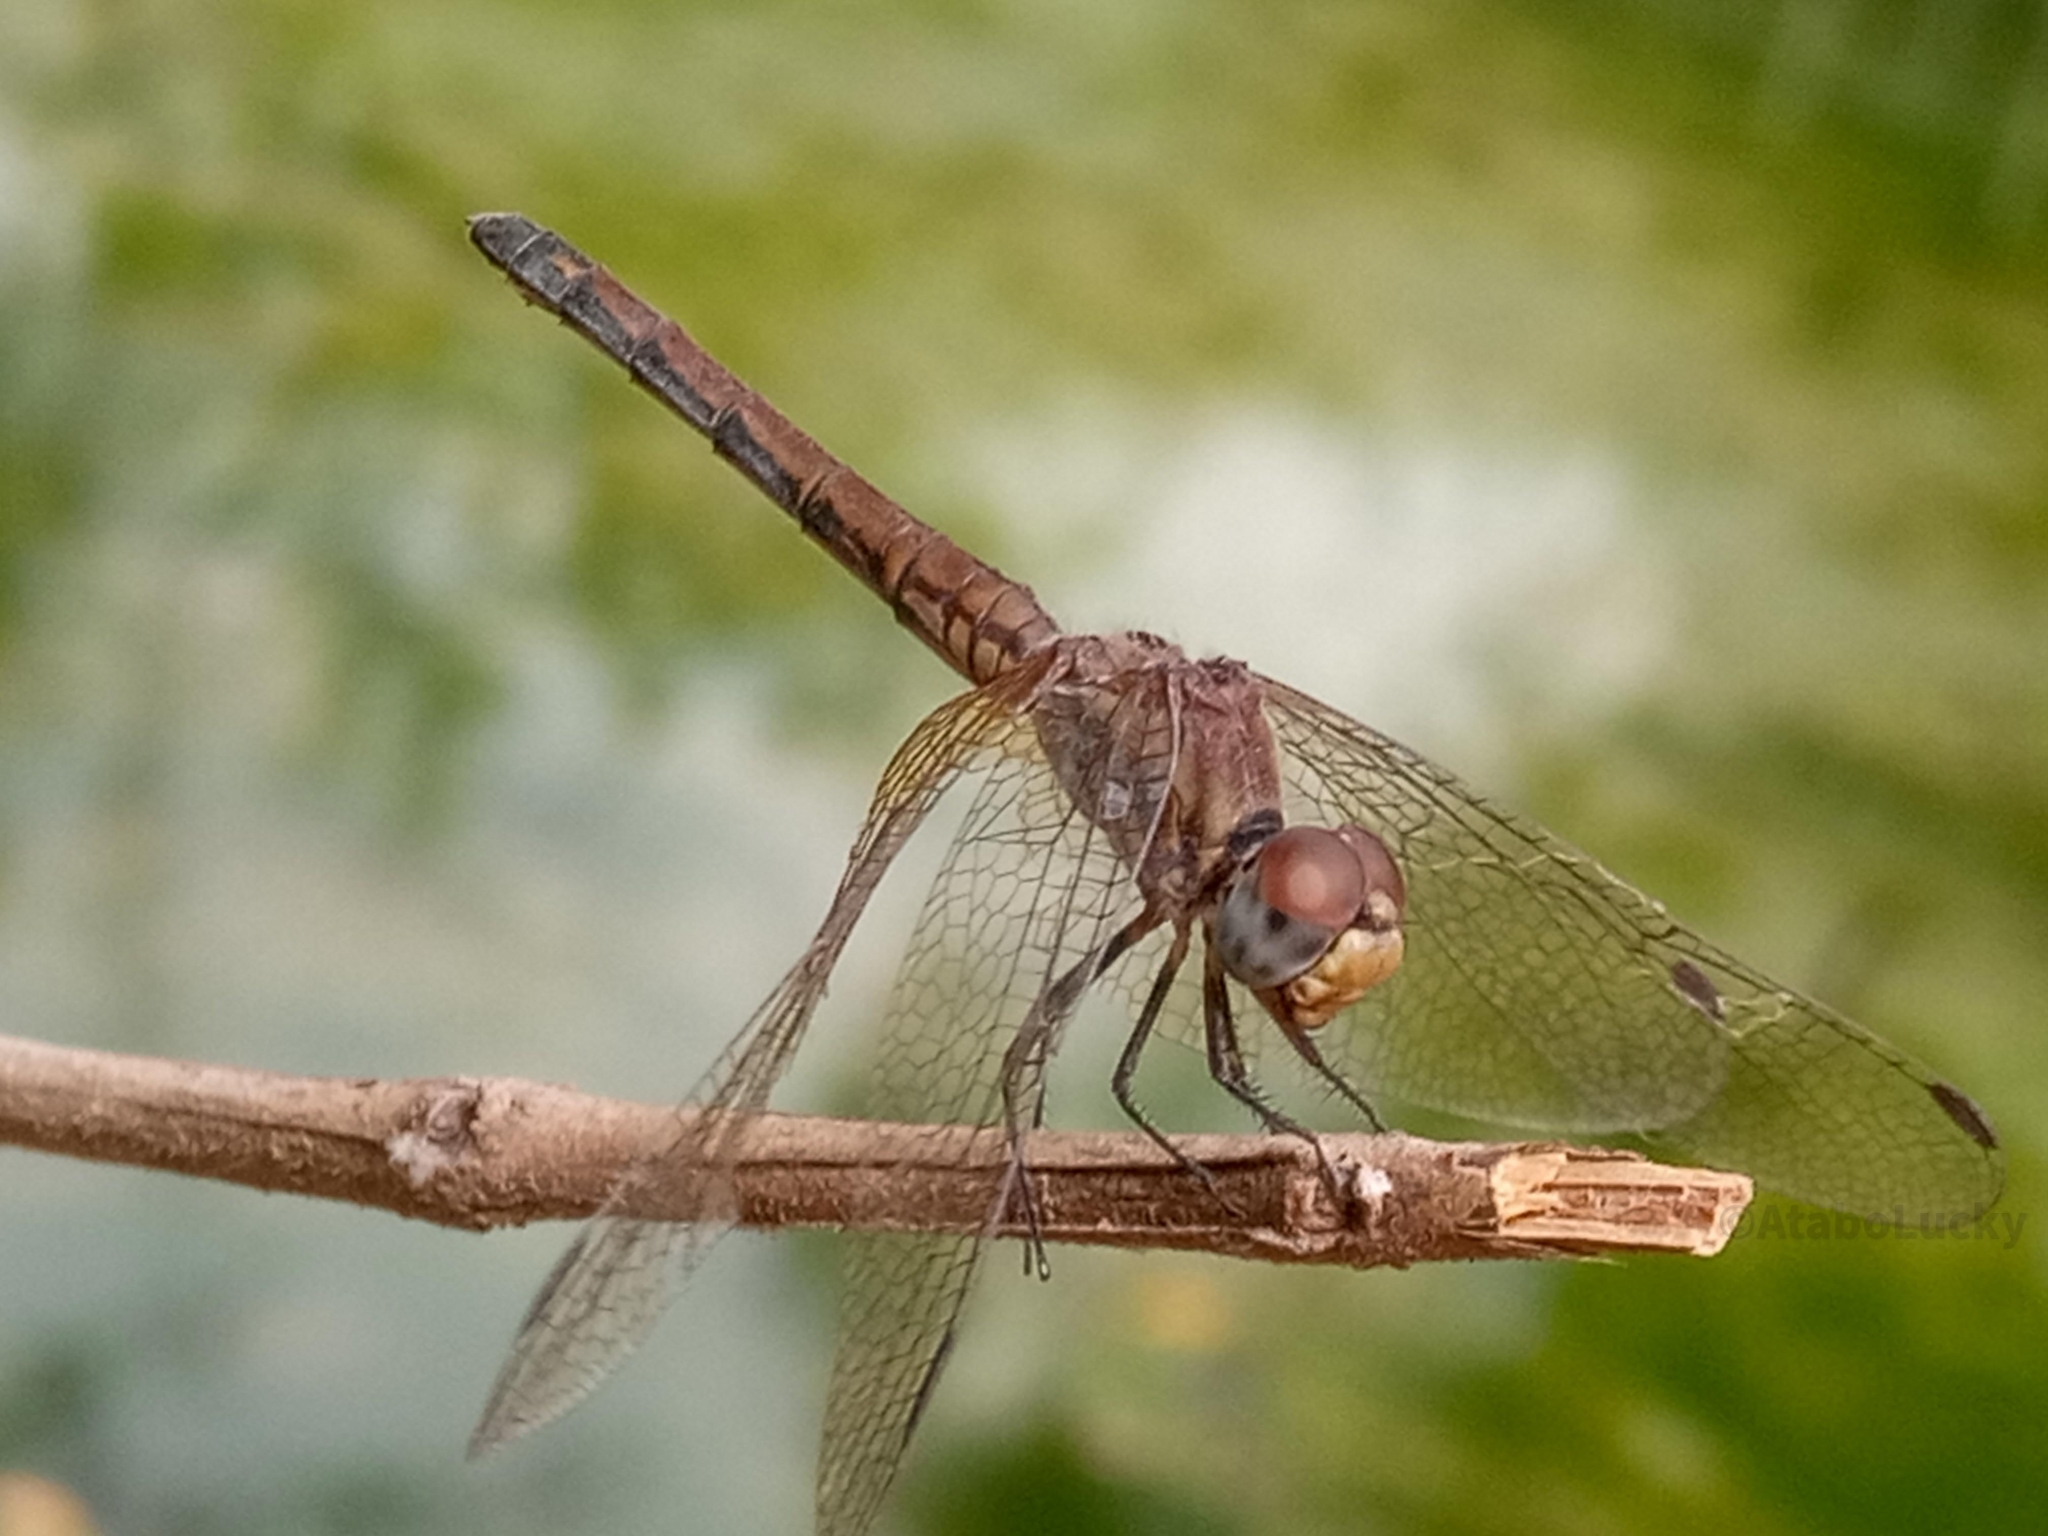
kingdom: Animalia
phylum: Arthropoda
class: Insecta
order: Odonata
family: Libellulidae
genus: Trithemis
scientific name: Trithemis arteriosa
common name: Red-veined dropwing
